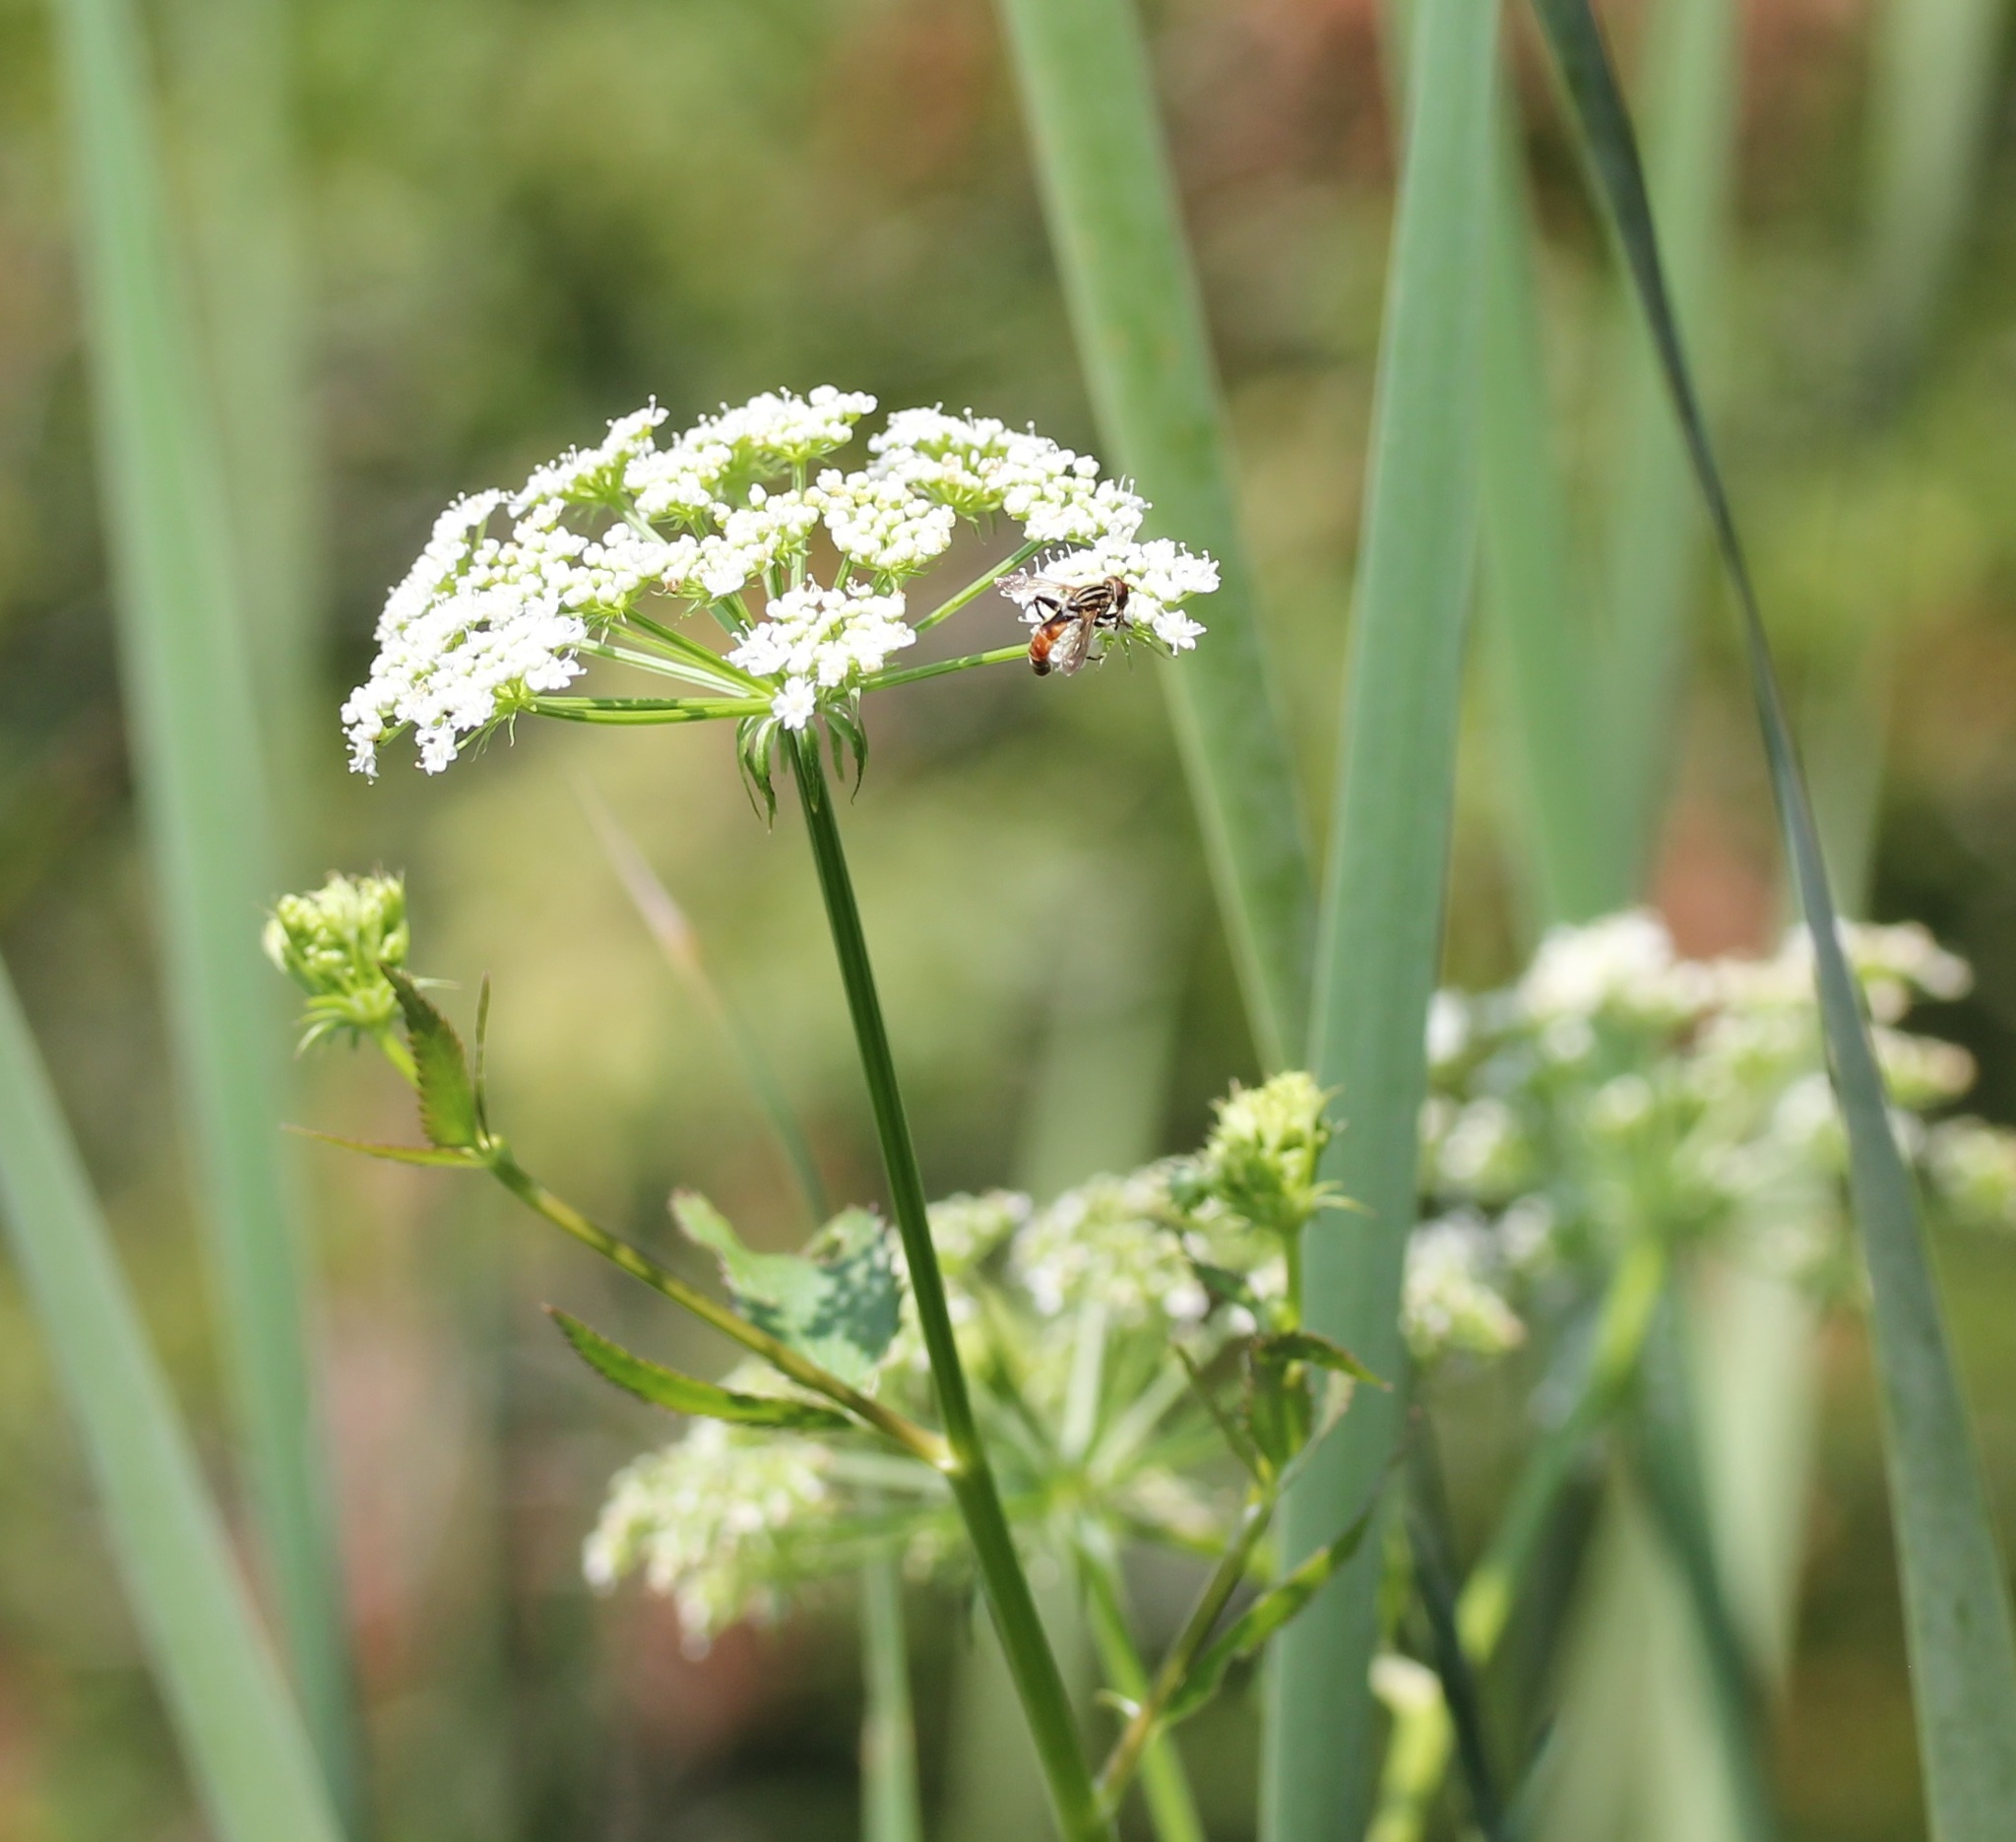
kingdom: Animalia
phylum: Arthropoda
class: Insecta
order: Diptera
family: Syrphidae
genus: Anasimyia
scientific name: Anasimyia distinctus
